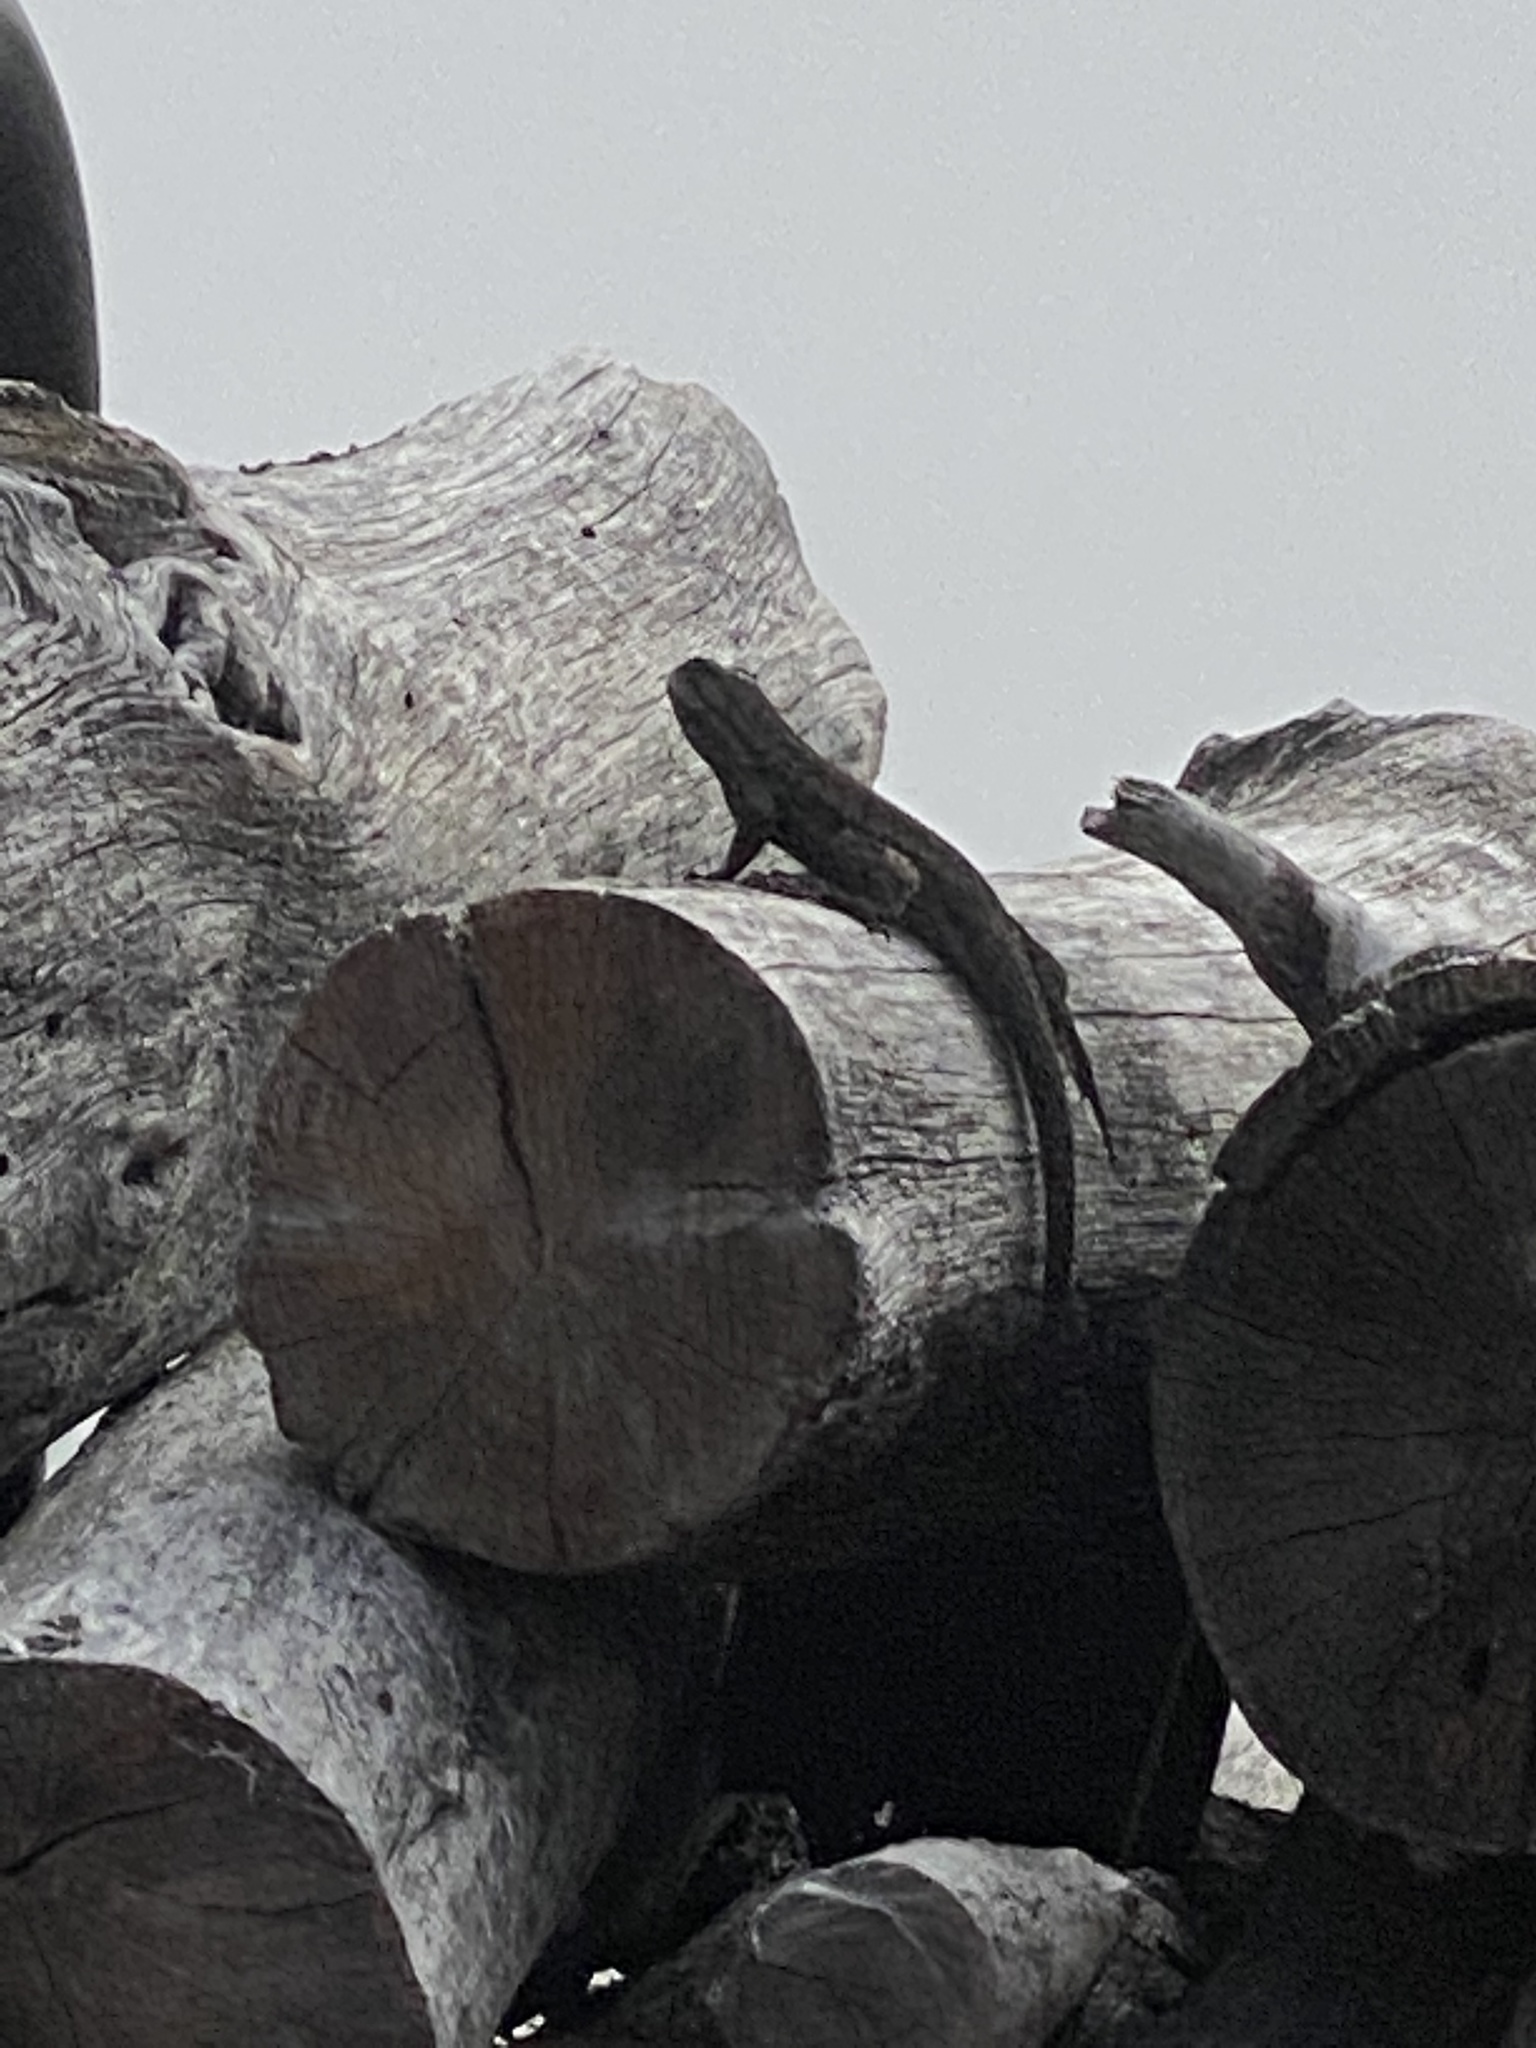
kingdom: Animalia
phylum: Chordata
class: Squamata
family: Phrynosomatidae
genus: Sceloporus
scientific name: Sceloporus occidentalis
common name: Western fence lizard
